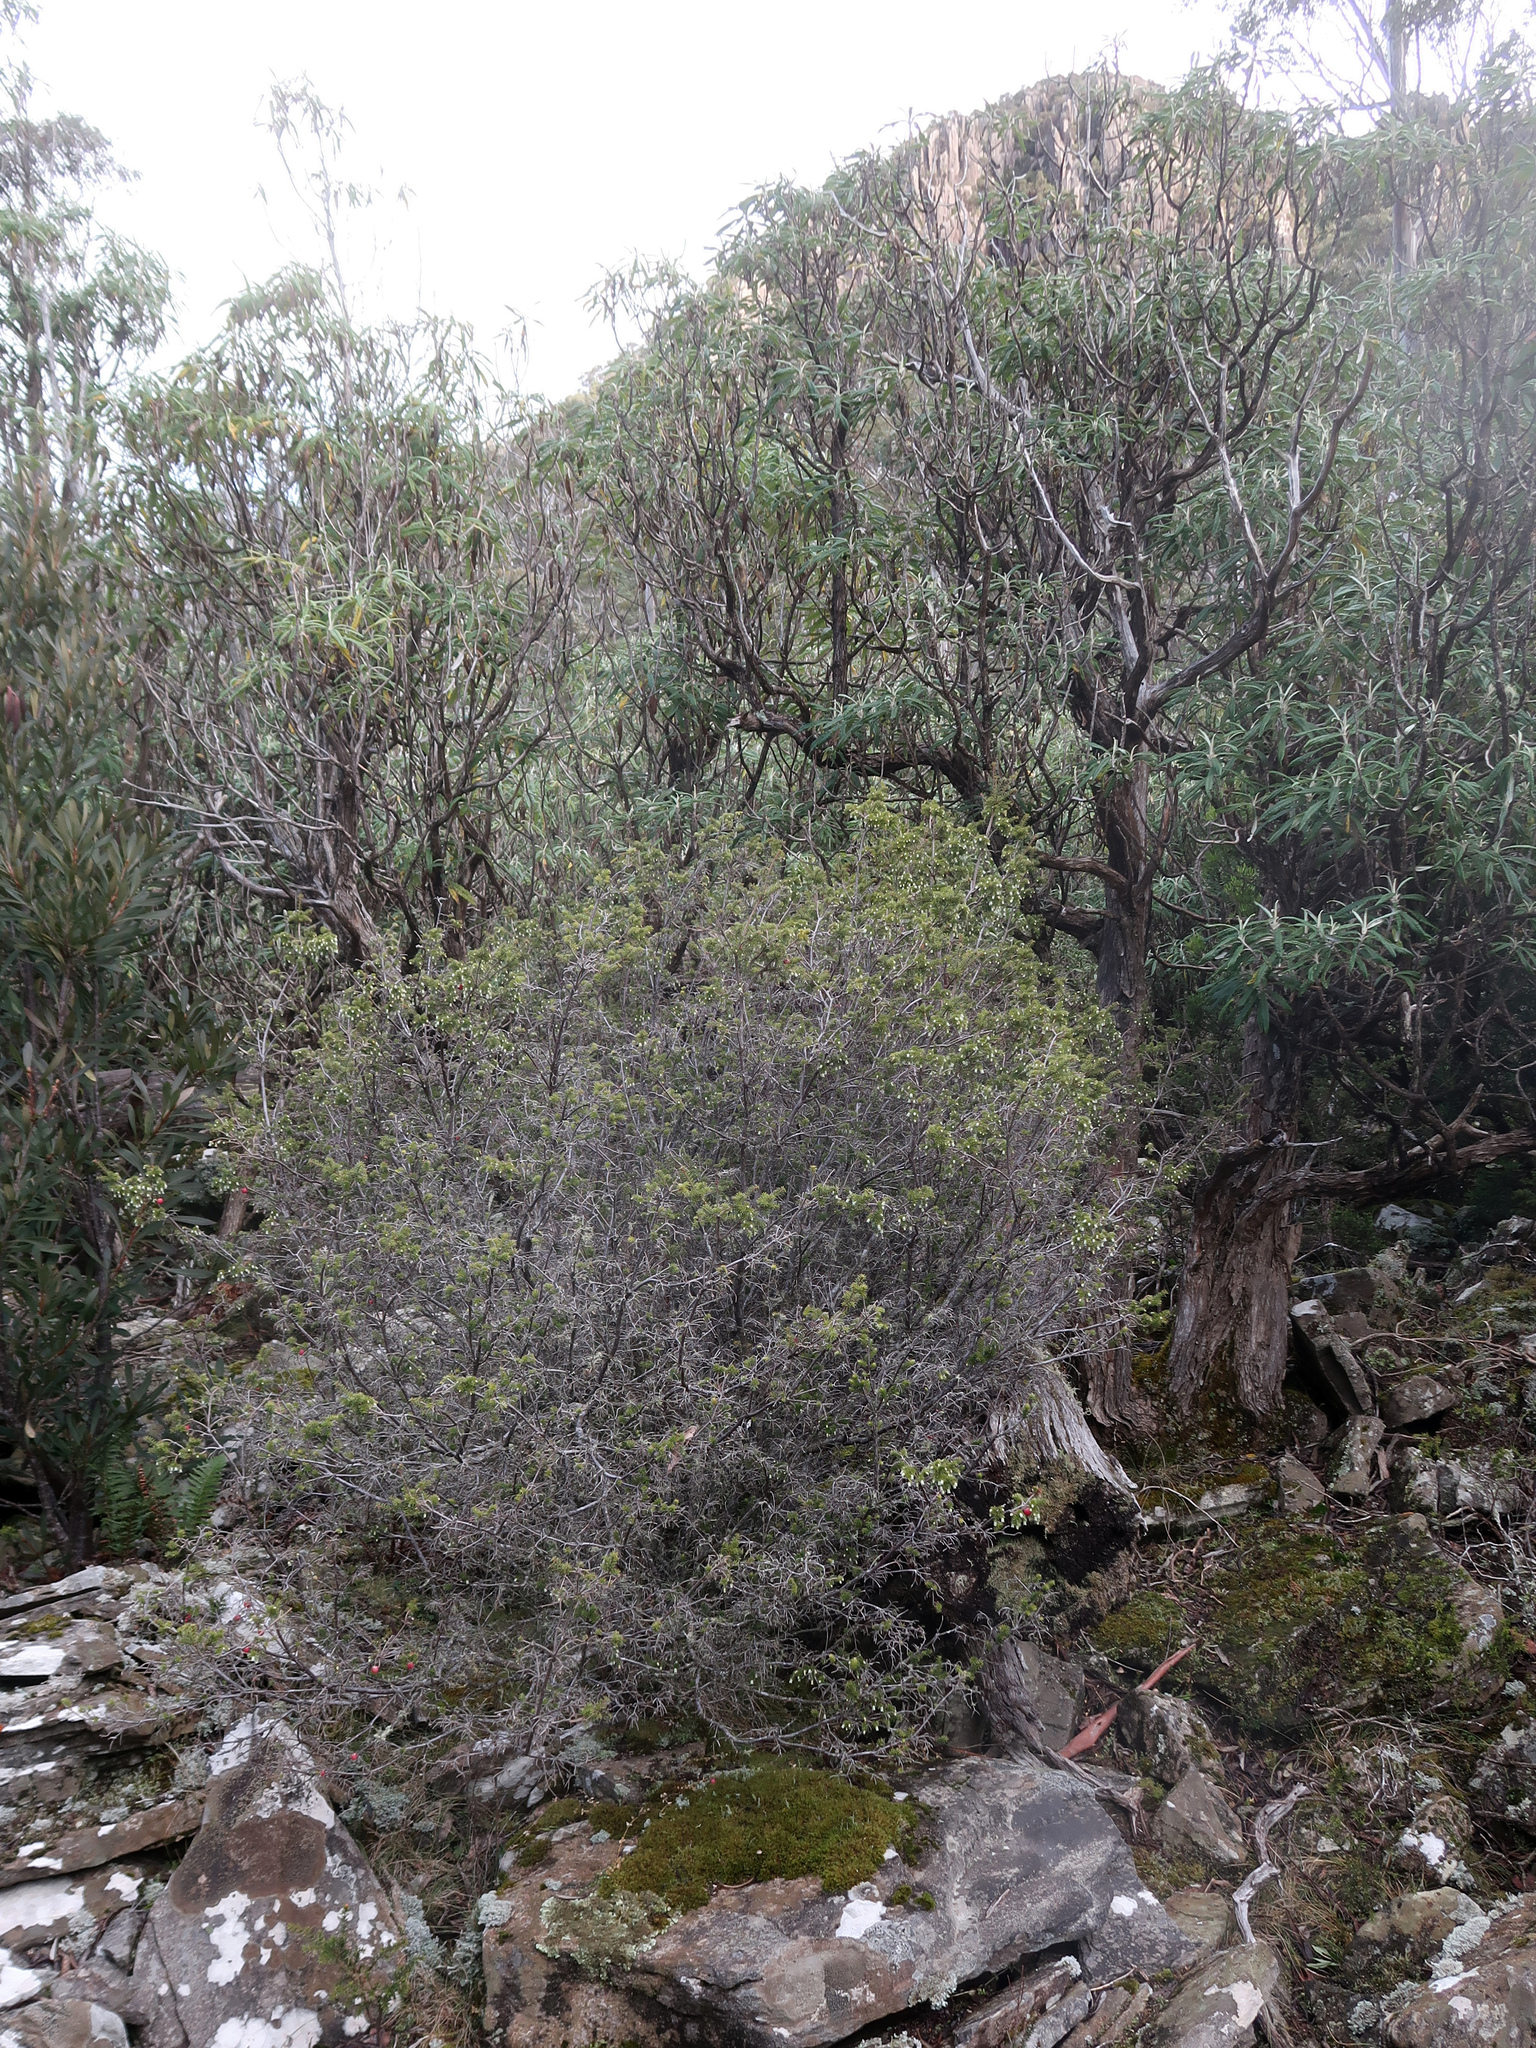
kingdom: Plantae
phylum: Tracheophyta
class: Magnoliopsida
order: Ericales
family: Ericaceae
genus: Leptecophylla
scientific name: Leptecophylla pendulosa
